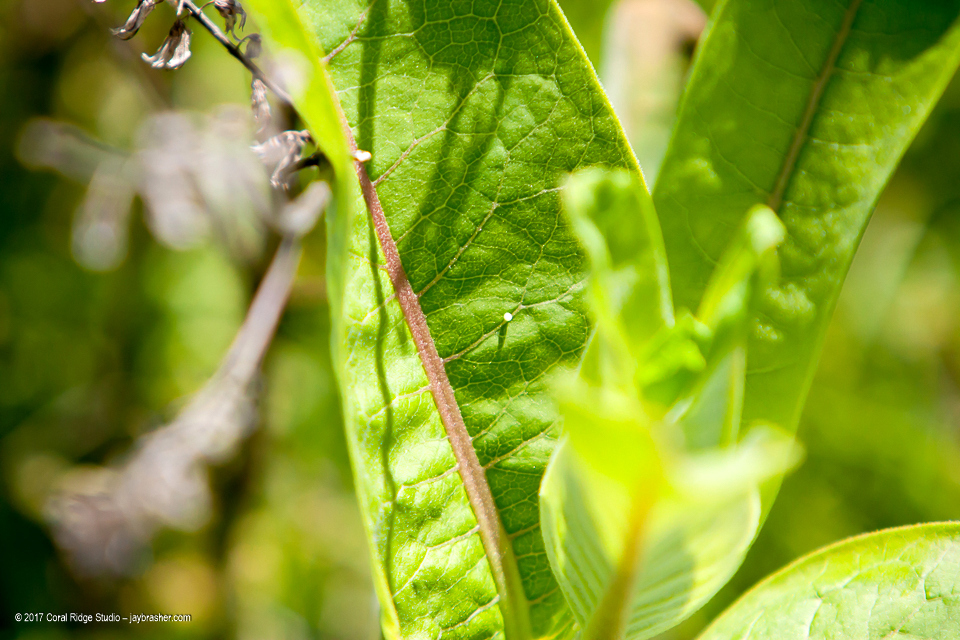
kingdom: Animalia
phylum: Arthropoda
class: Insecta
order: Lepidoptera
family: Nymphalidae
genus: Danaus
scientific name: Danaus plexippus
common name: Monarch
